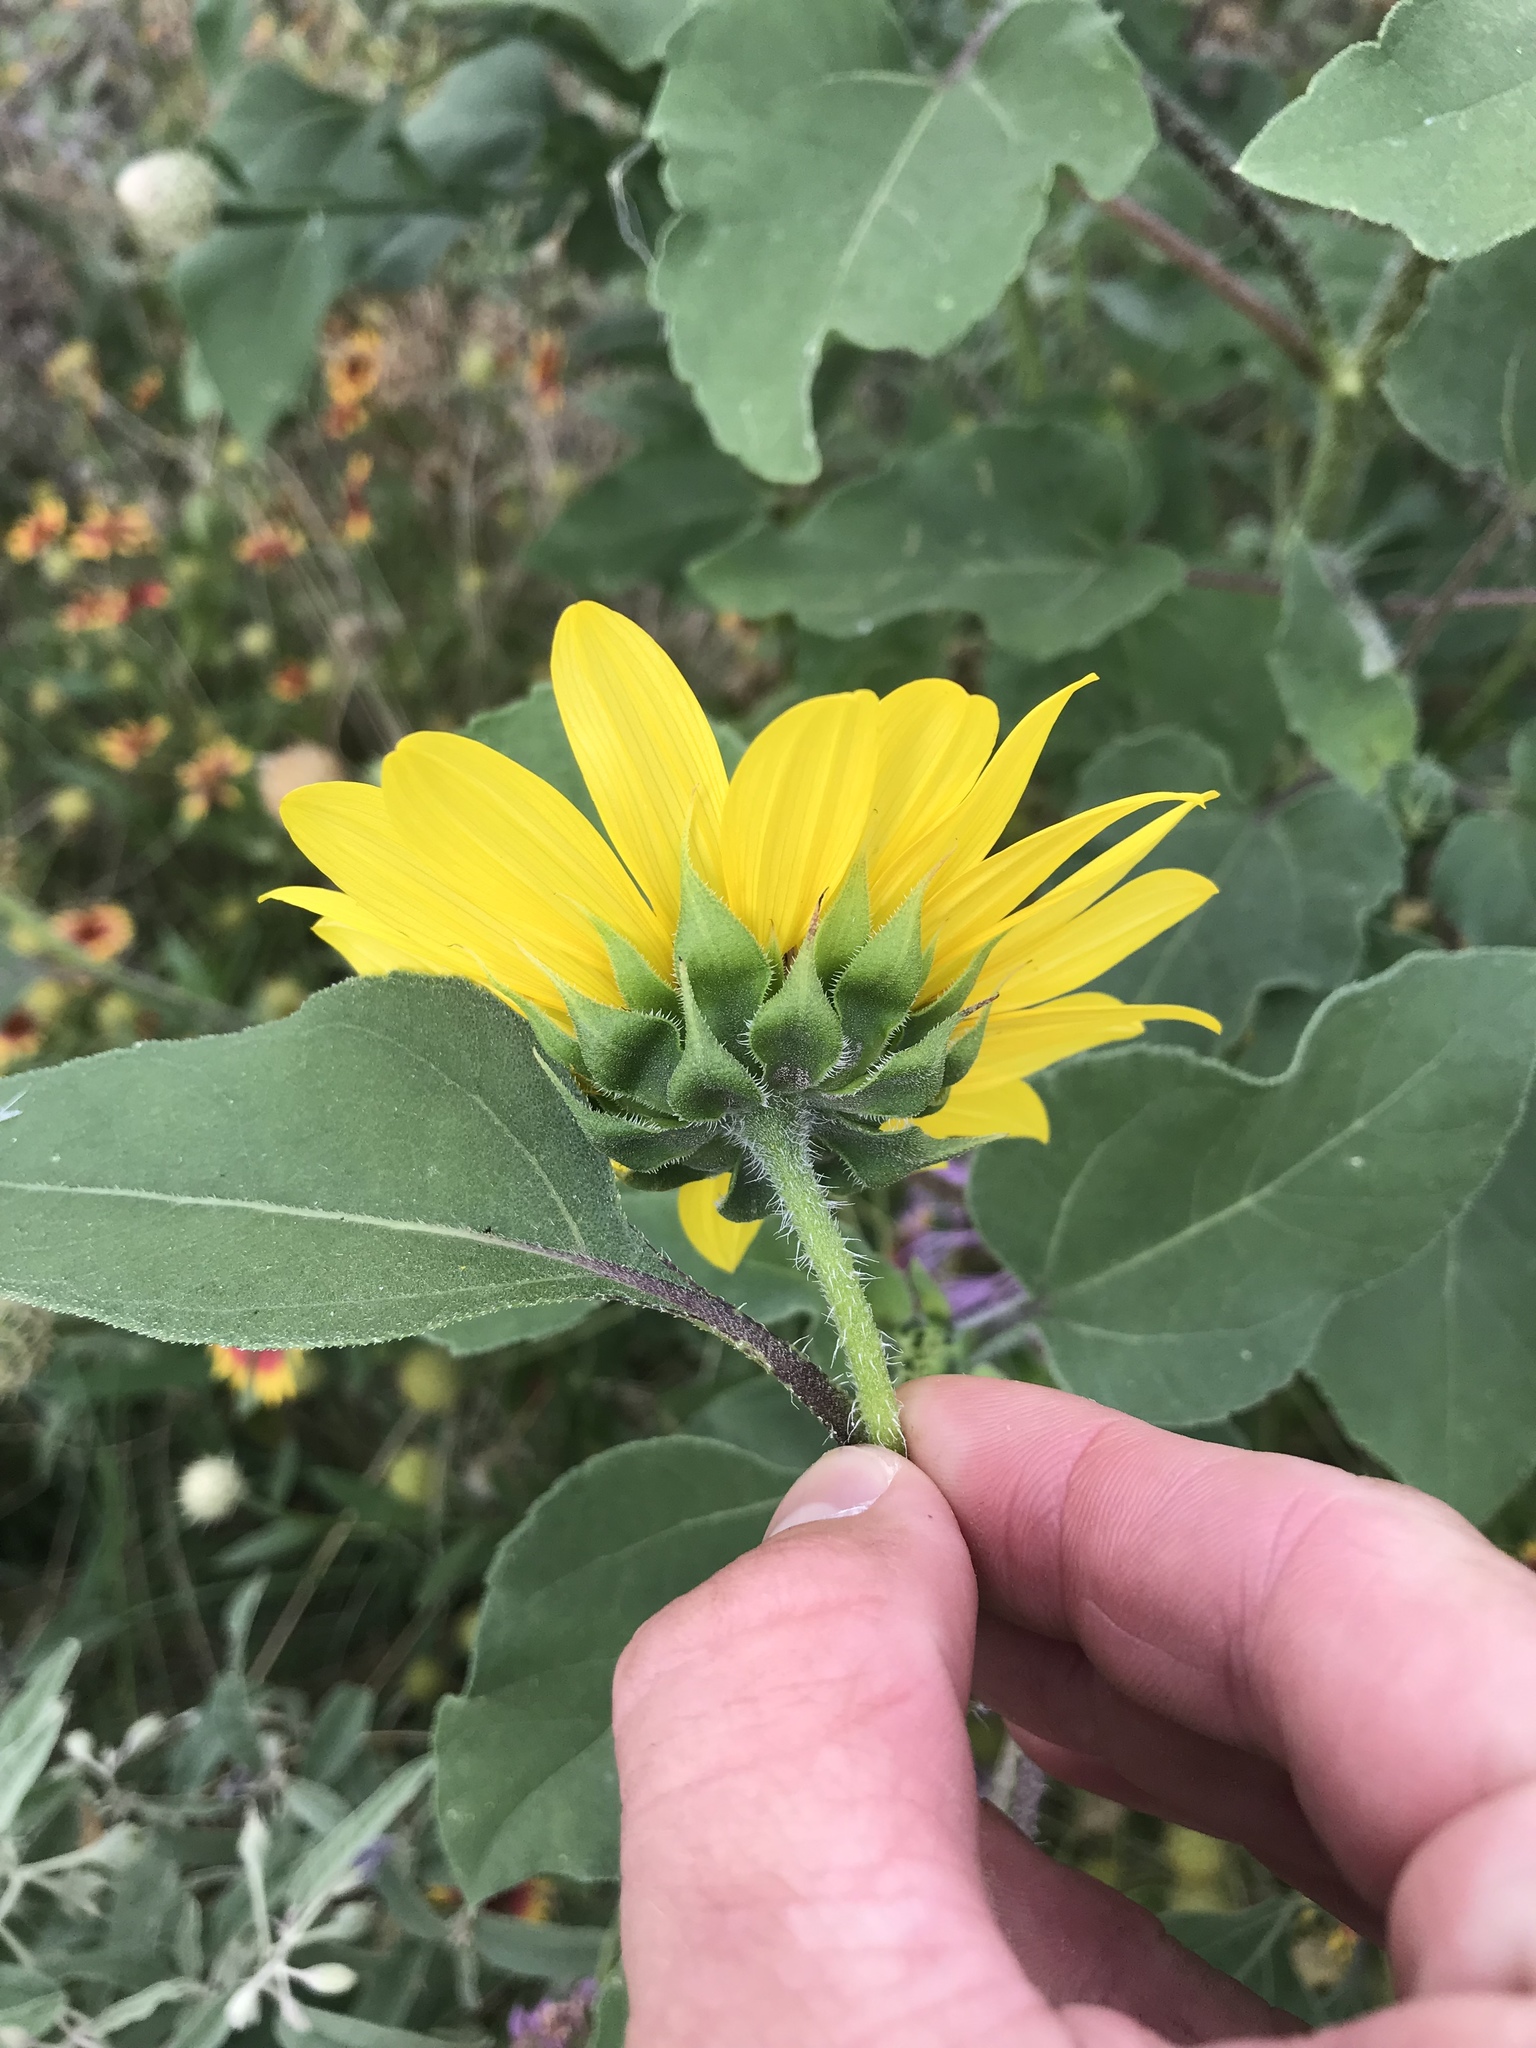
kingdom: Plantae
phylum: Tracheophyta
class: Magnoliopsida
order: Asterales
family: Asteraceae
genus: Helianthus
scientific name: Helianthus annuus
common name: Sunflower
